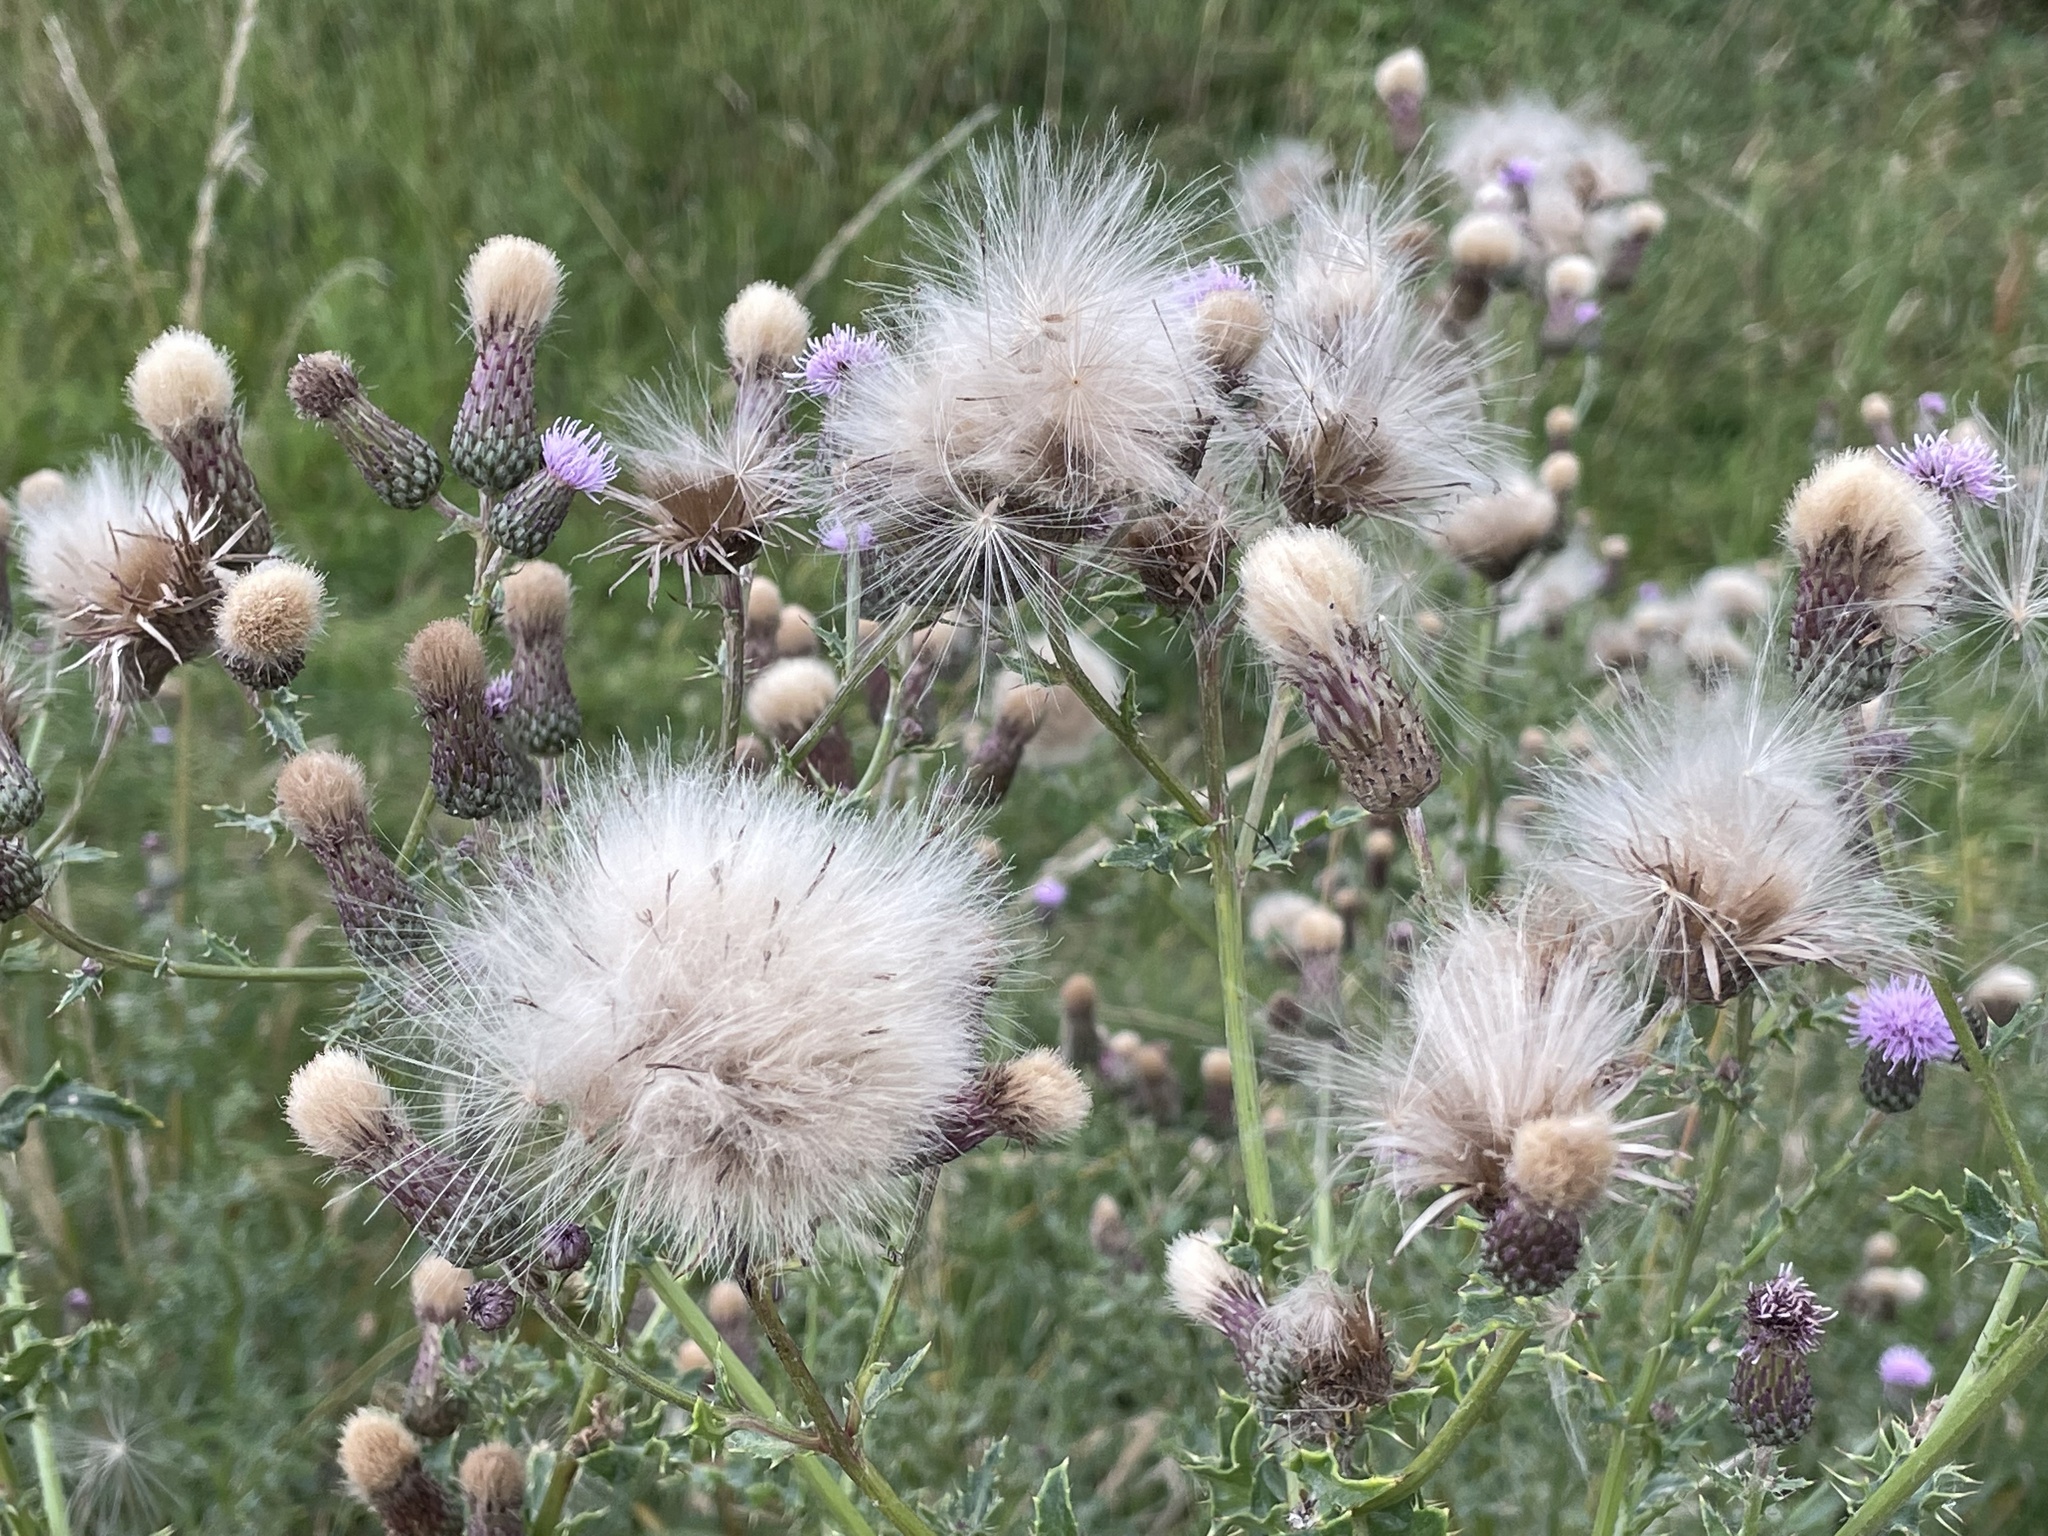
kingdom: Plantae
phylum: Tracheophyta
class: Magnoliopsida
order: Asterales
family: Asteraceae
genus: Cirsium
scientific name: Cirsium arvense
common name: Creeping thistle
